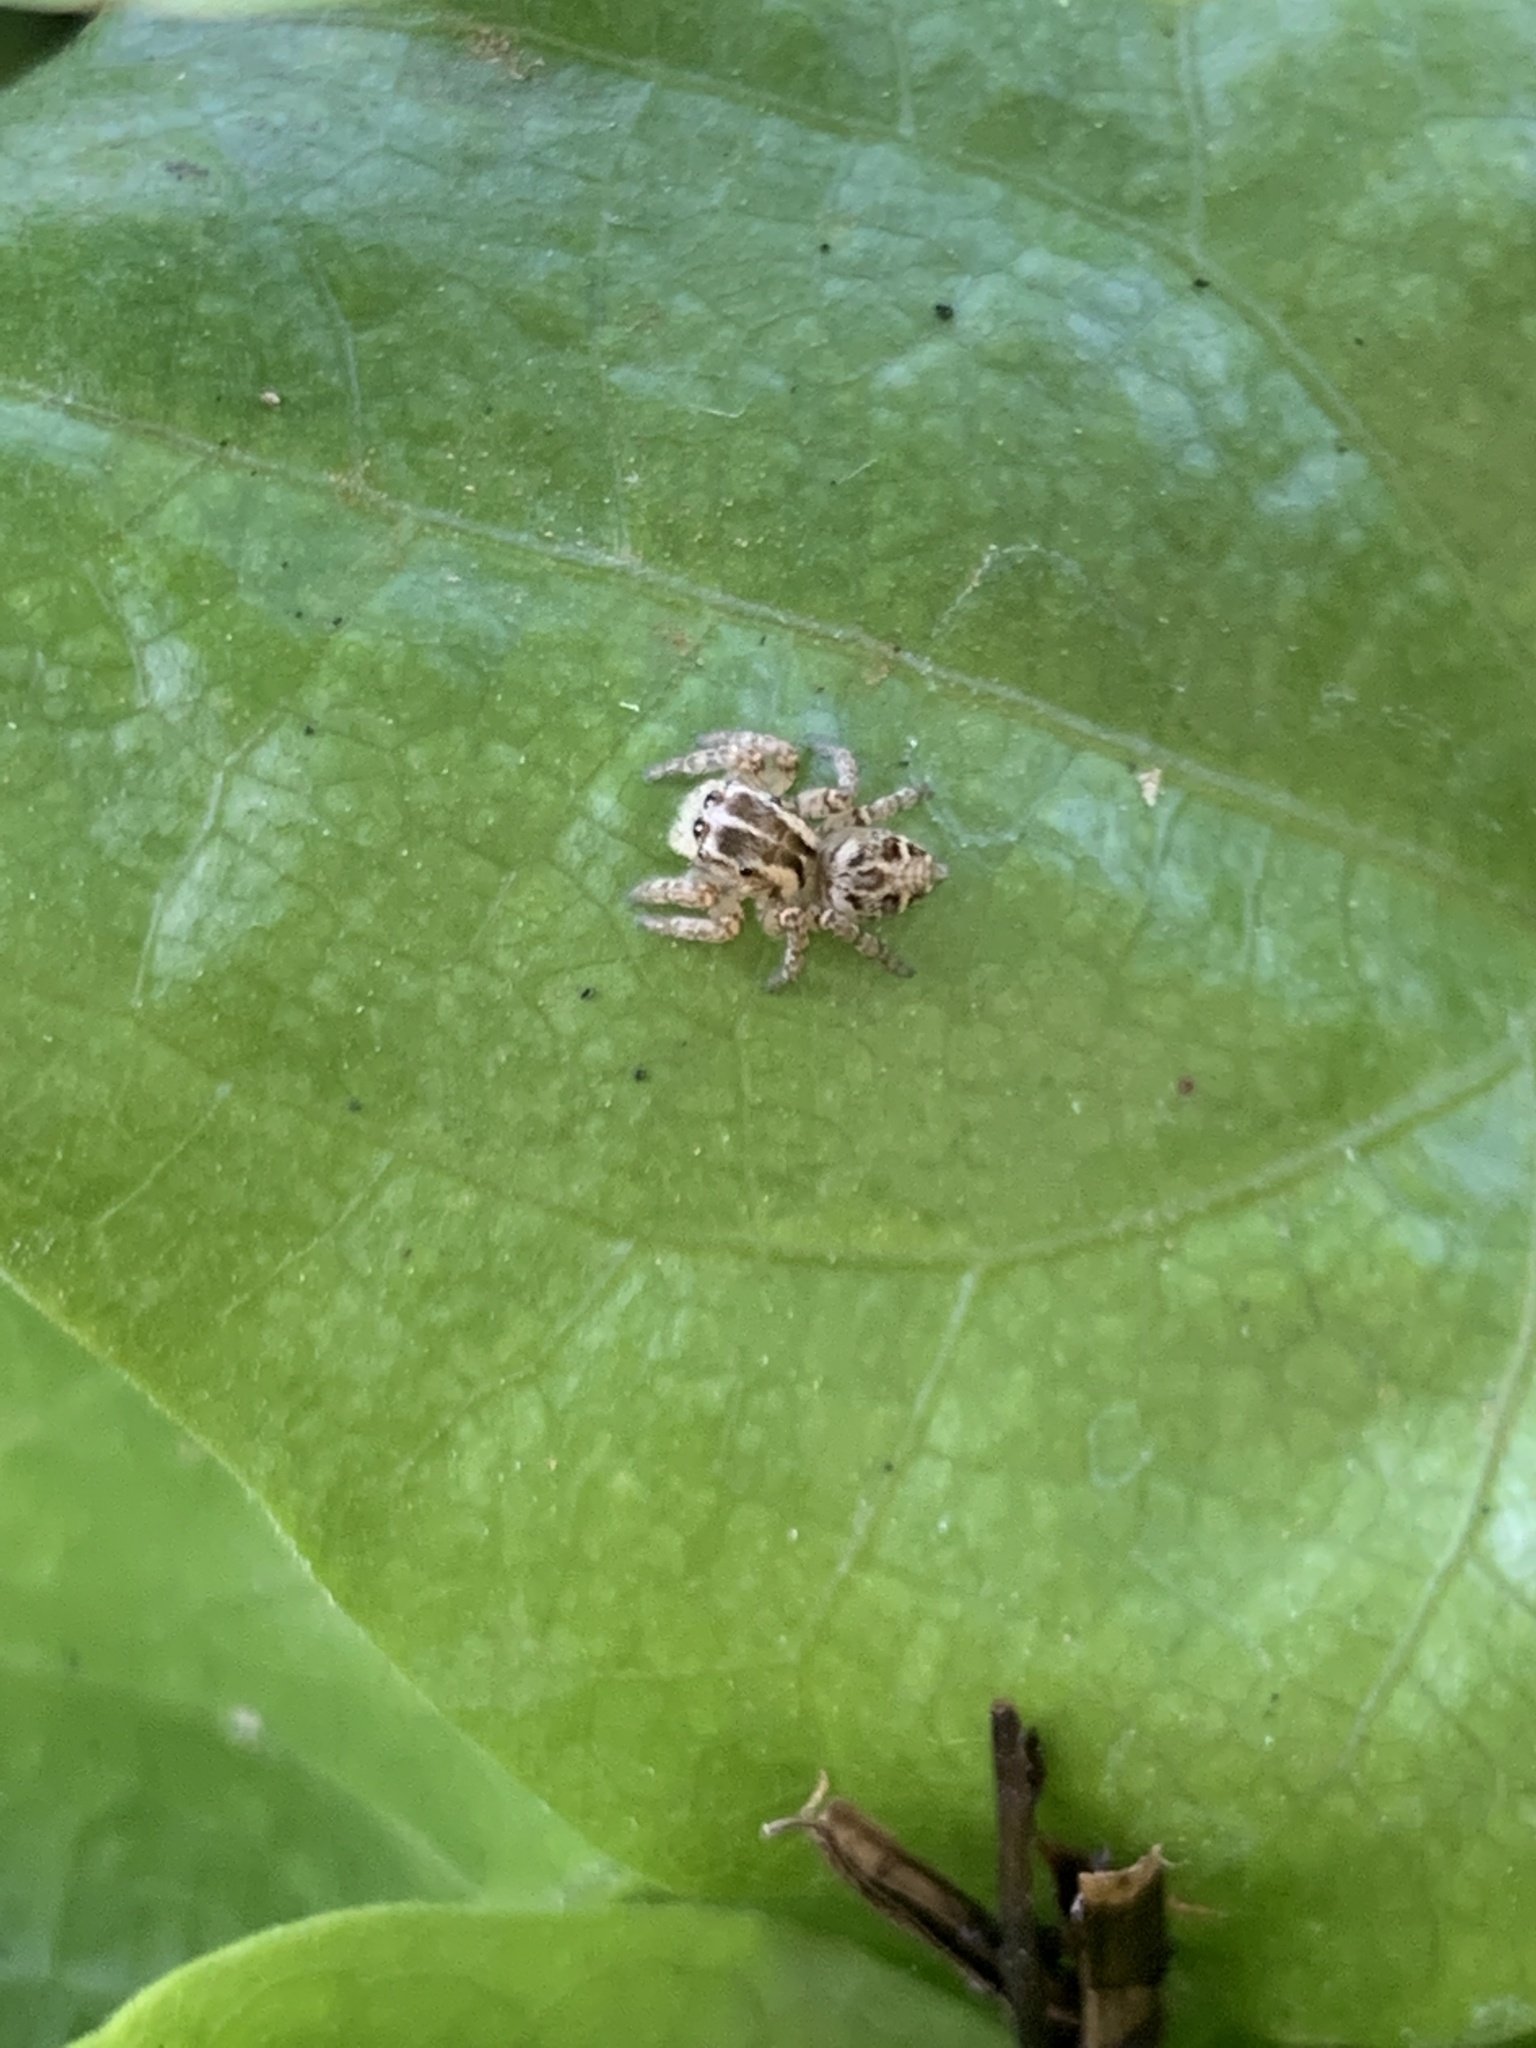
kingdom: Animalia
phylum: Arthropoda
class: Arachnida
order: Araneae
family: Salticidae
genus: Aphirape
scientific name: Aphirape
